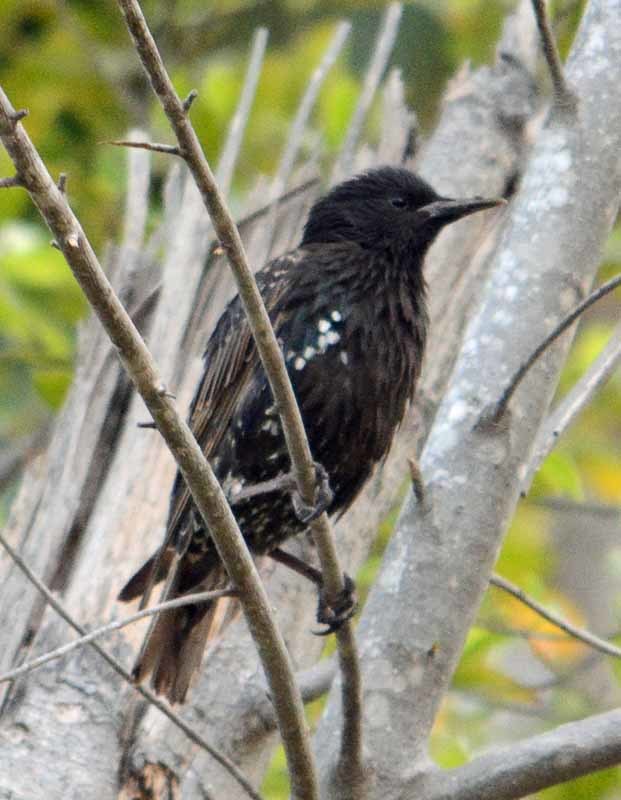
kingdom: Animalia
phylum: Chordata
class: Aves
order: Passeriformes
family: Sturnidae
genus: Sturnus
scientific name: Sturnus vulgaris
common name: Common starling
